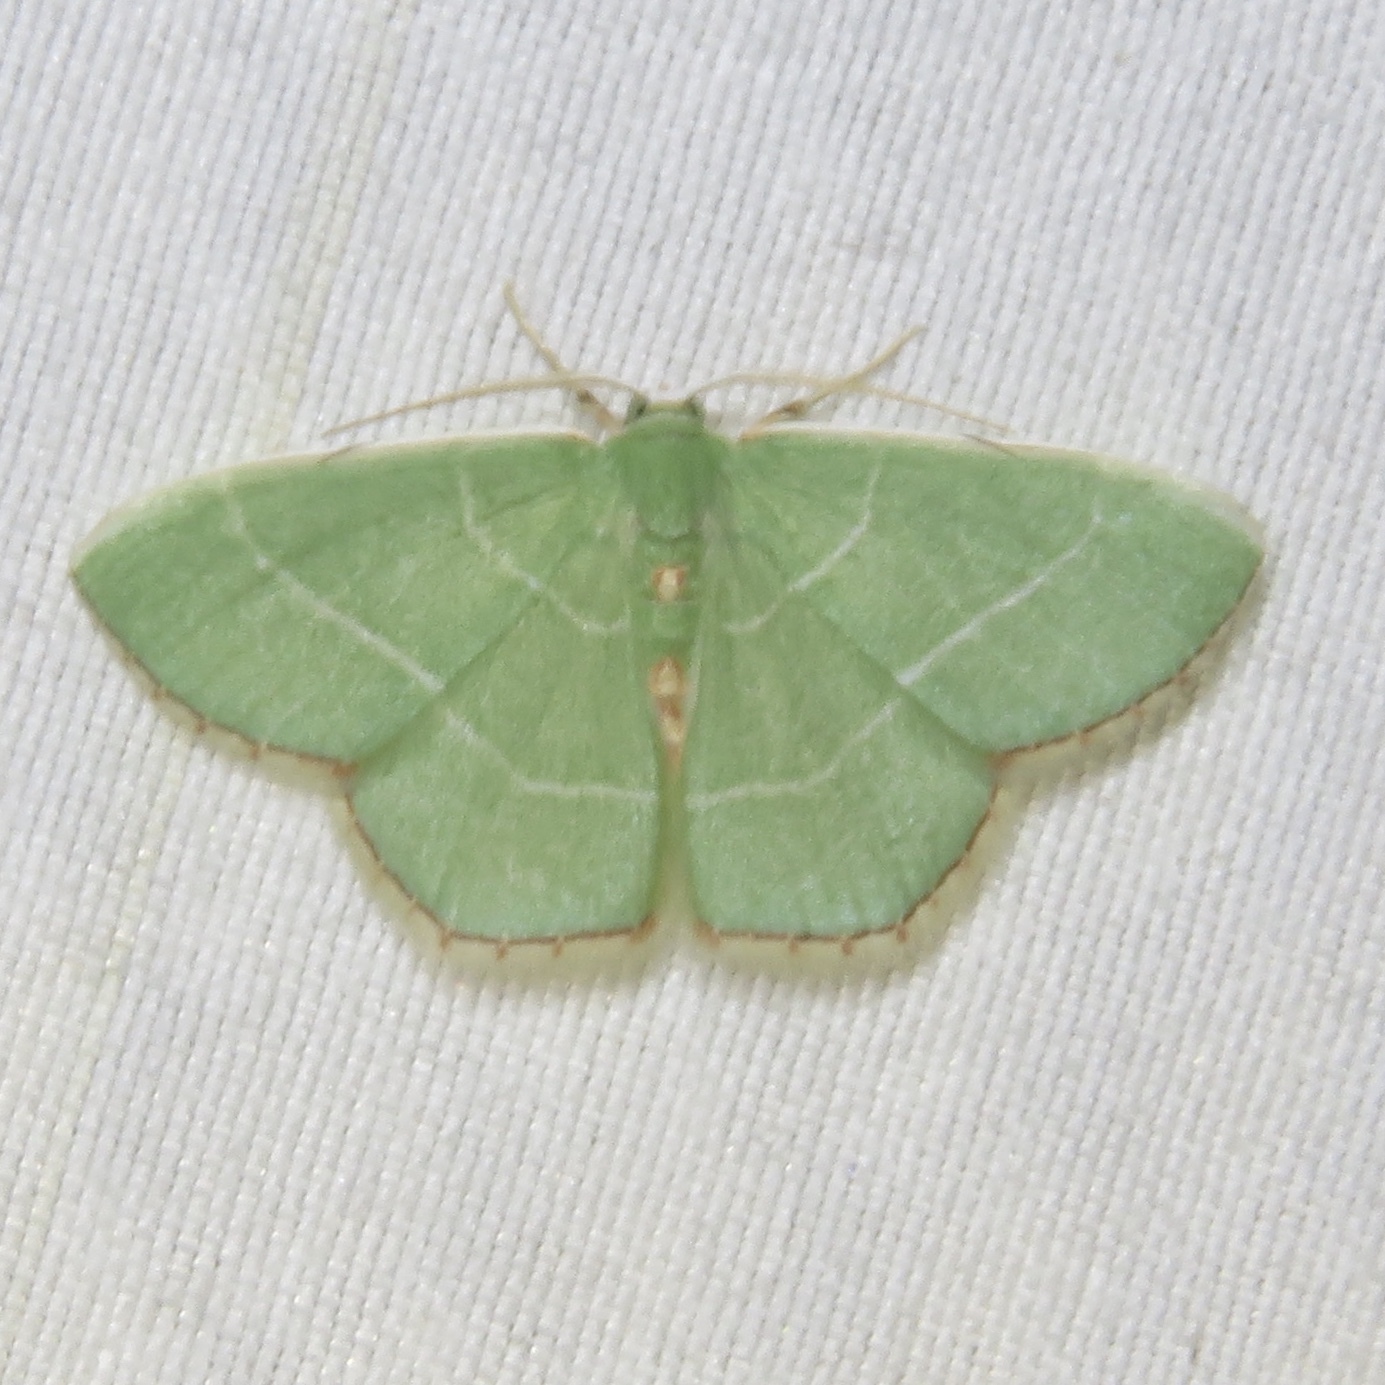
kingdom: Animalia
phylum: Arthropoda
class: Insecta
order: Lepidoptera
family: Geometridae
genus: Nemoria
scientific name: Nemoria bistriaria
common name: Red-fringed emerald
